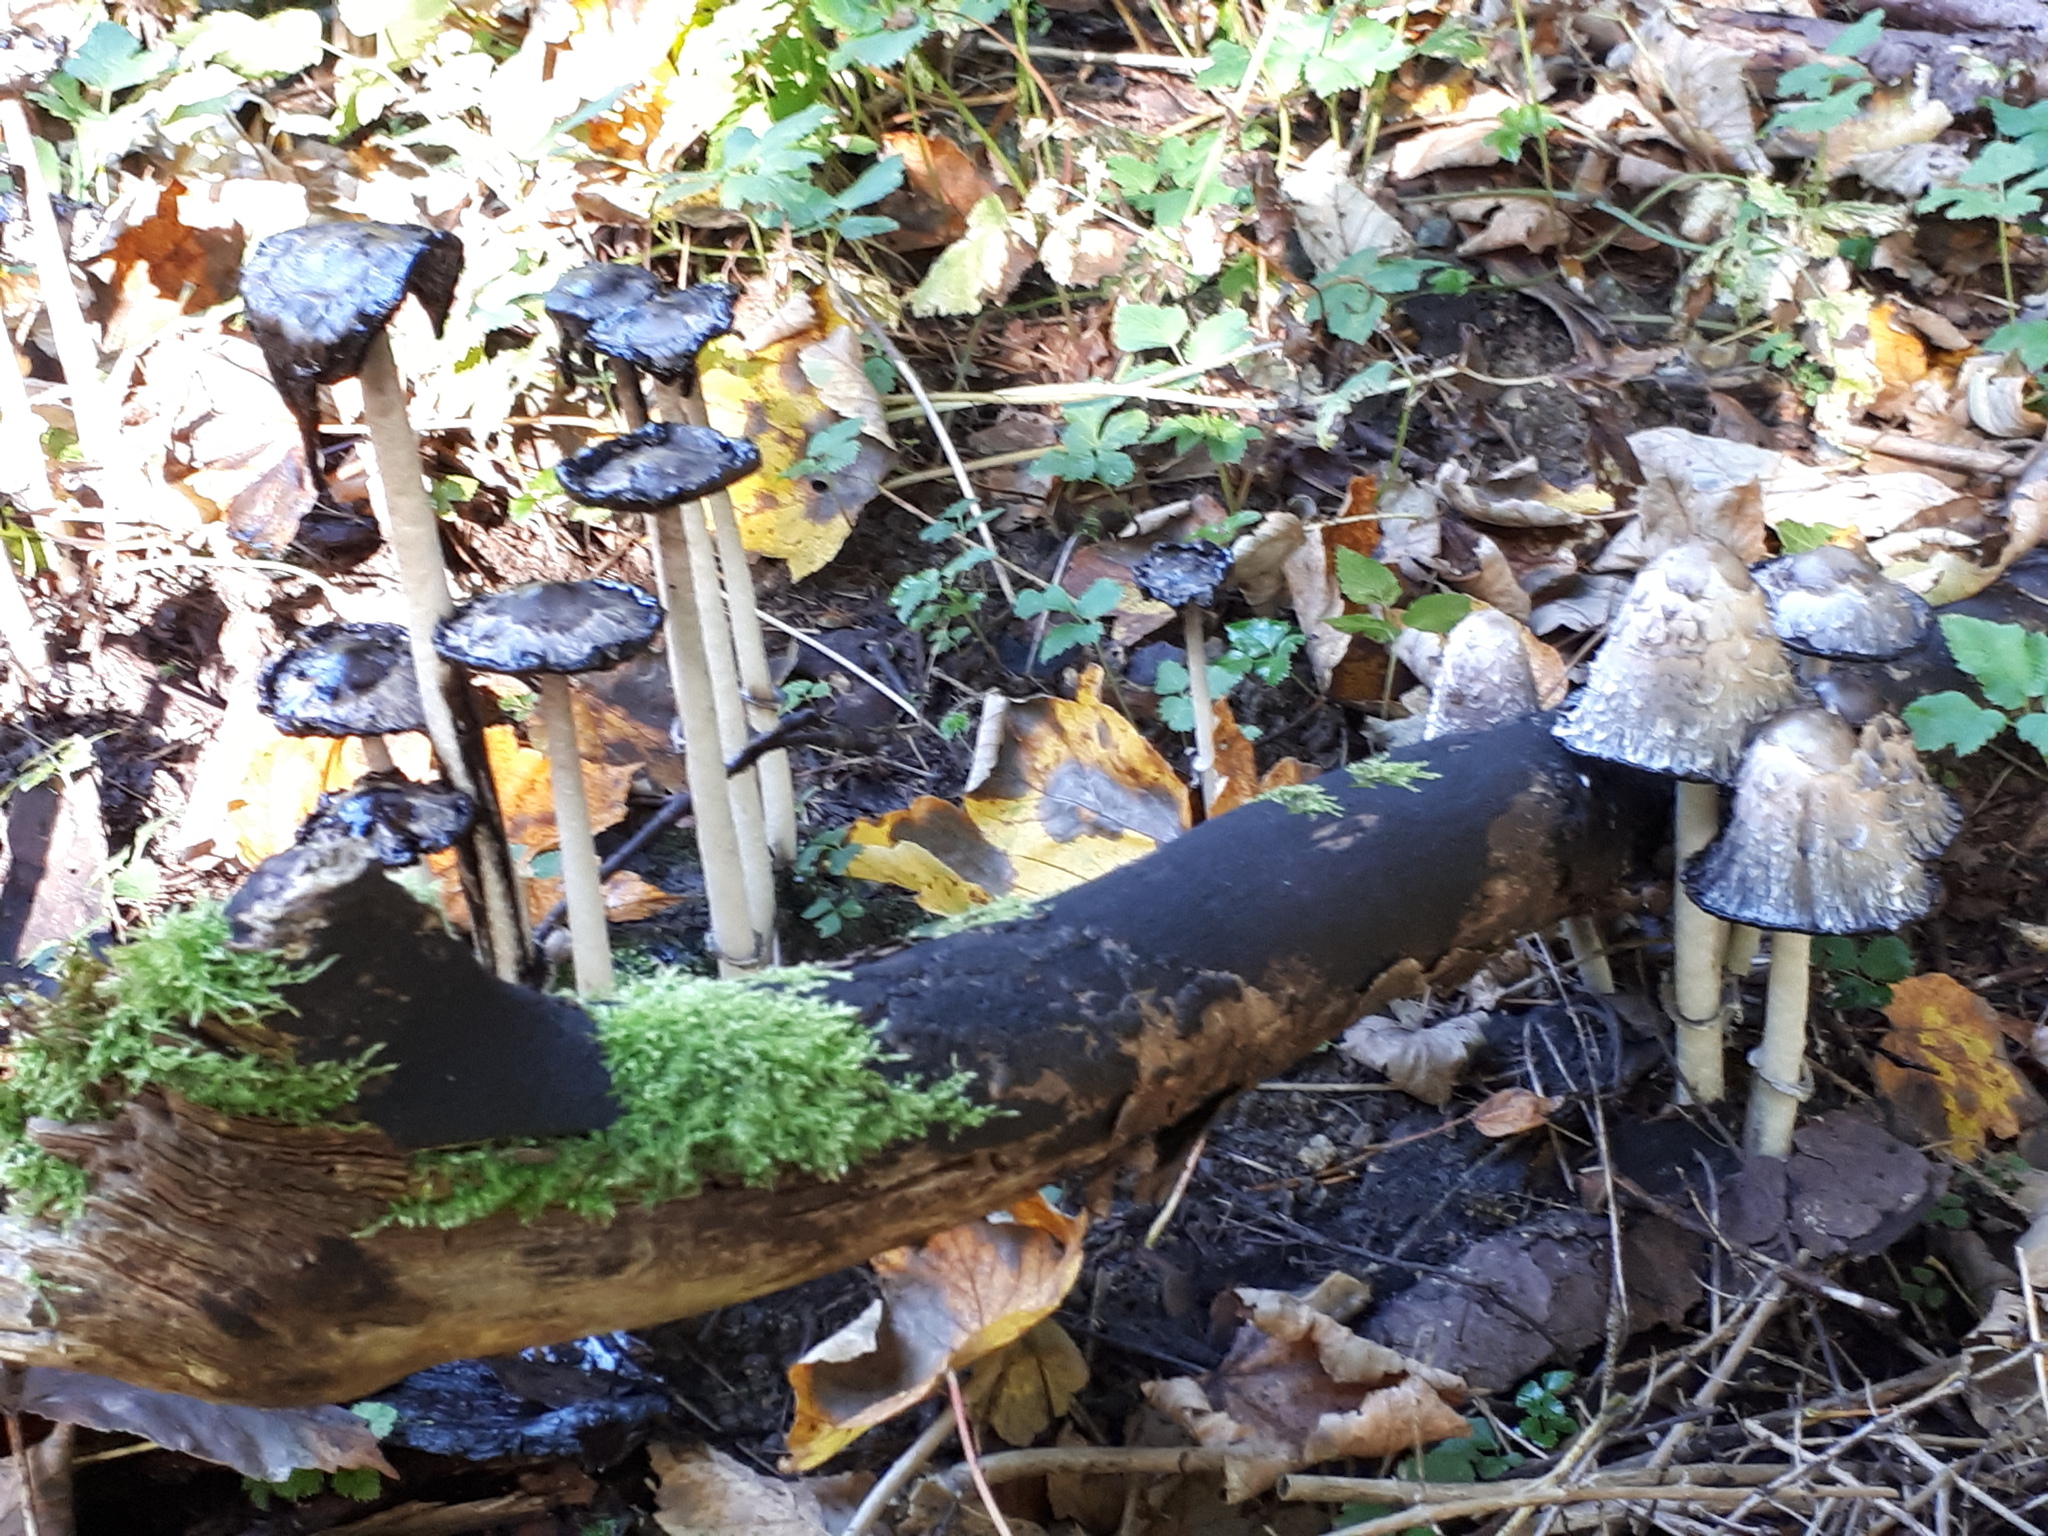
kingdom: Fungi
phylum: Basidiomycota
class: Agaricomycetes
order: Agaricales
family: Agaricaceae
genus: Coprinus
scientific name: Coprinus comatus
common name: Lawyer's wig
